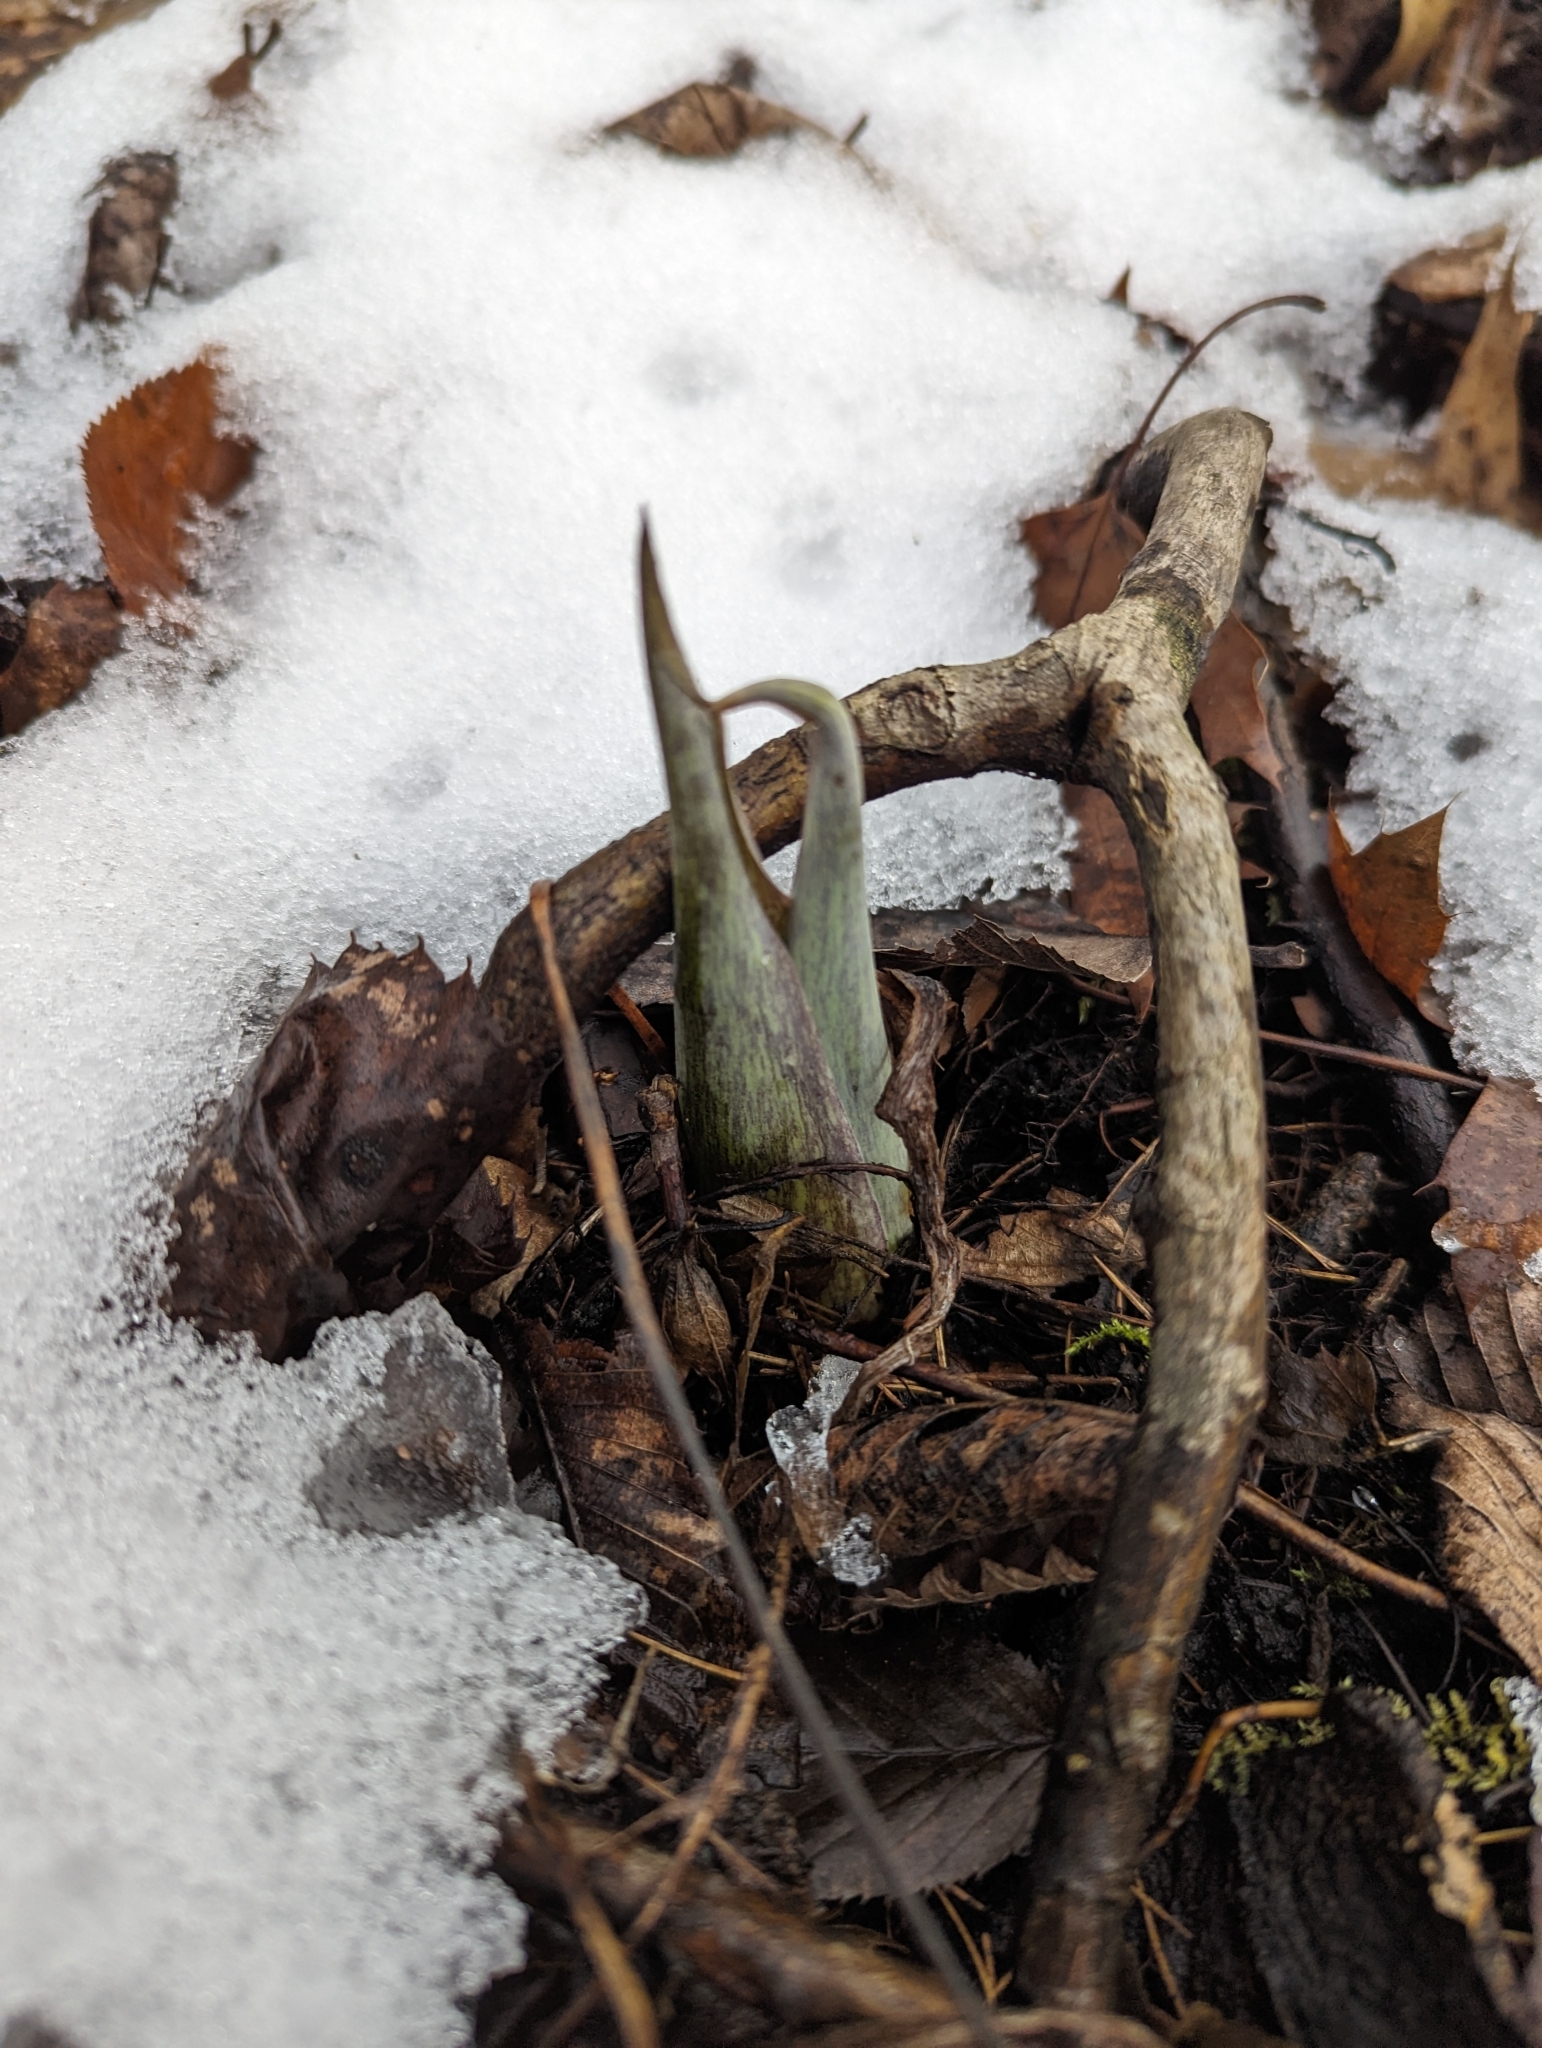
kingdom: Plantae
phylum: Tracheophyta
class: Liliopsida
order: Alismatales
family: Araceae
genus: Symplocarpus
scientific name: Symplocarpus foetidus
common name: Eastern skunk cabbage
